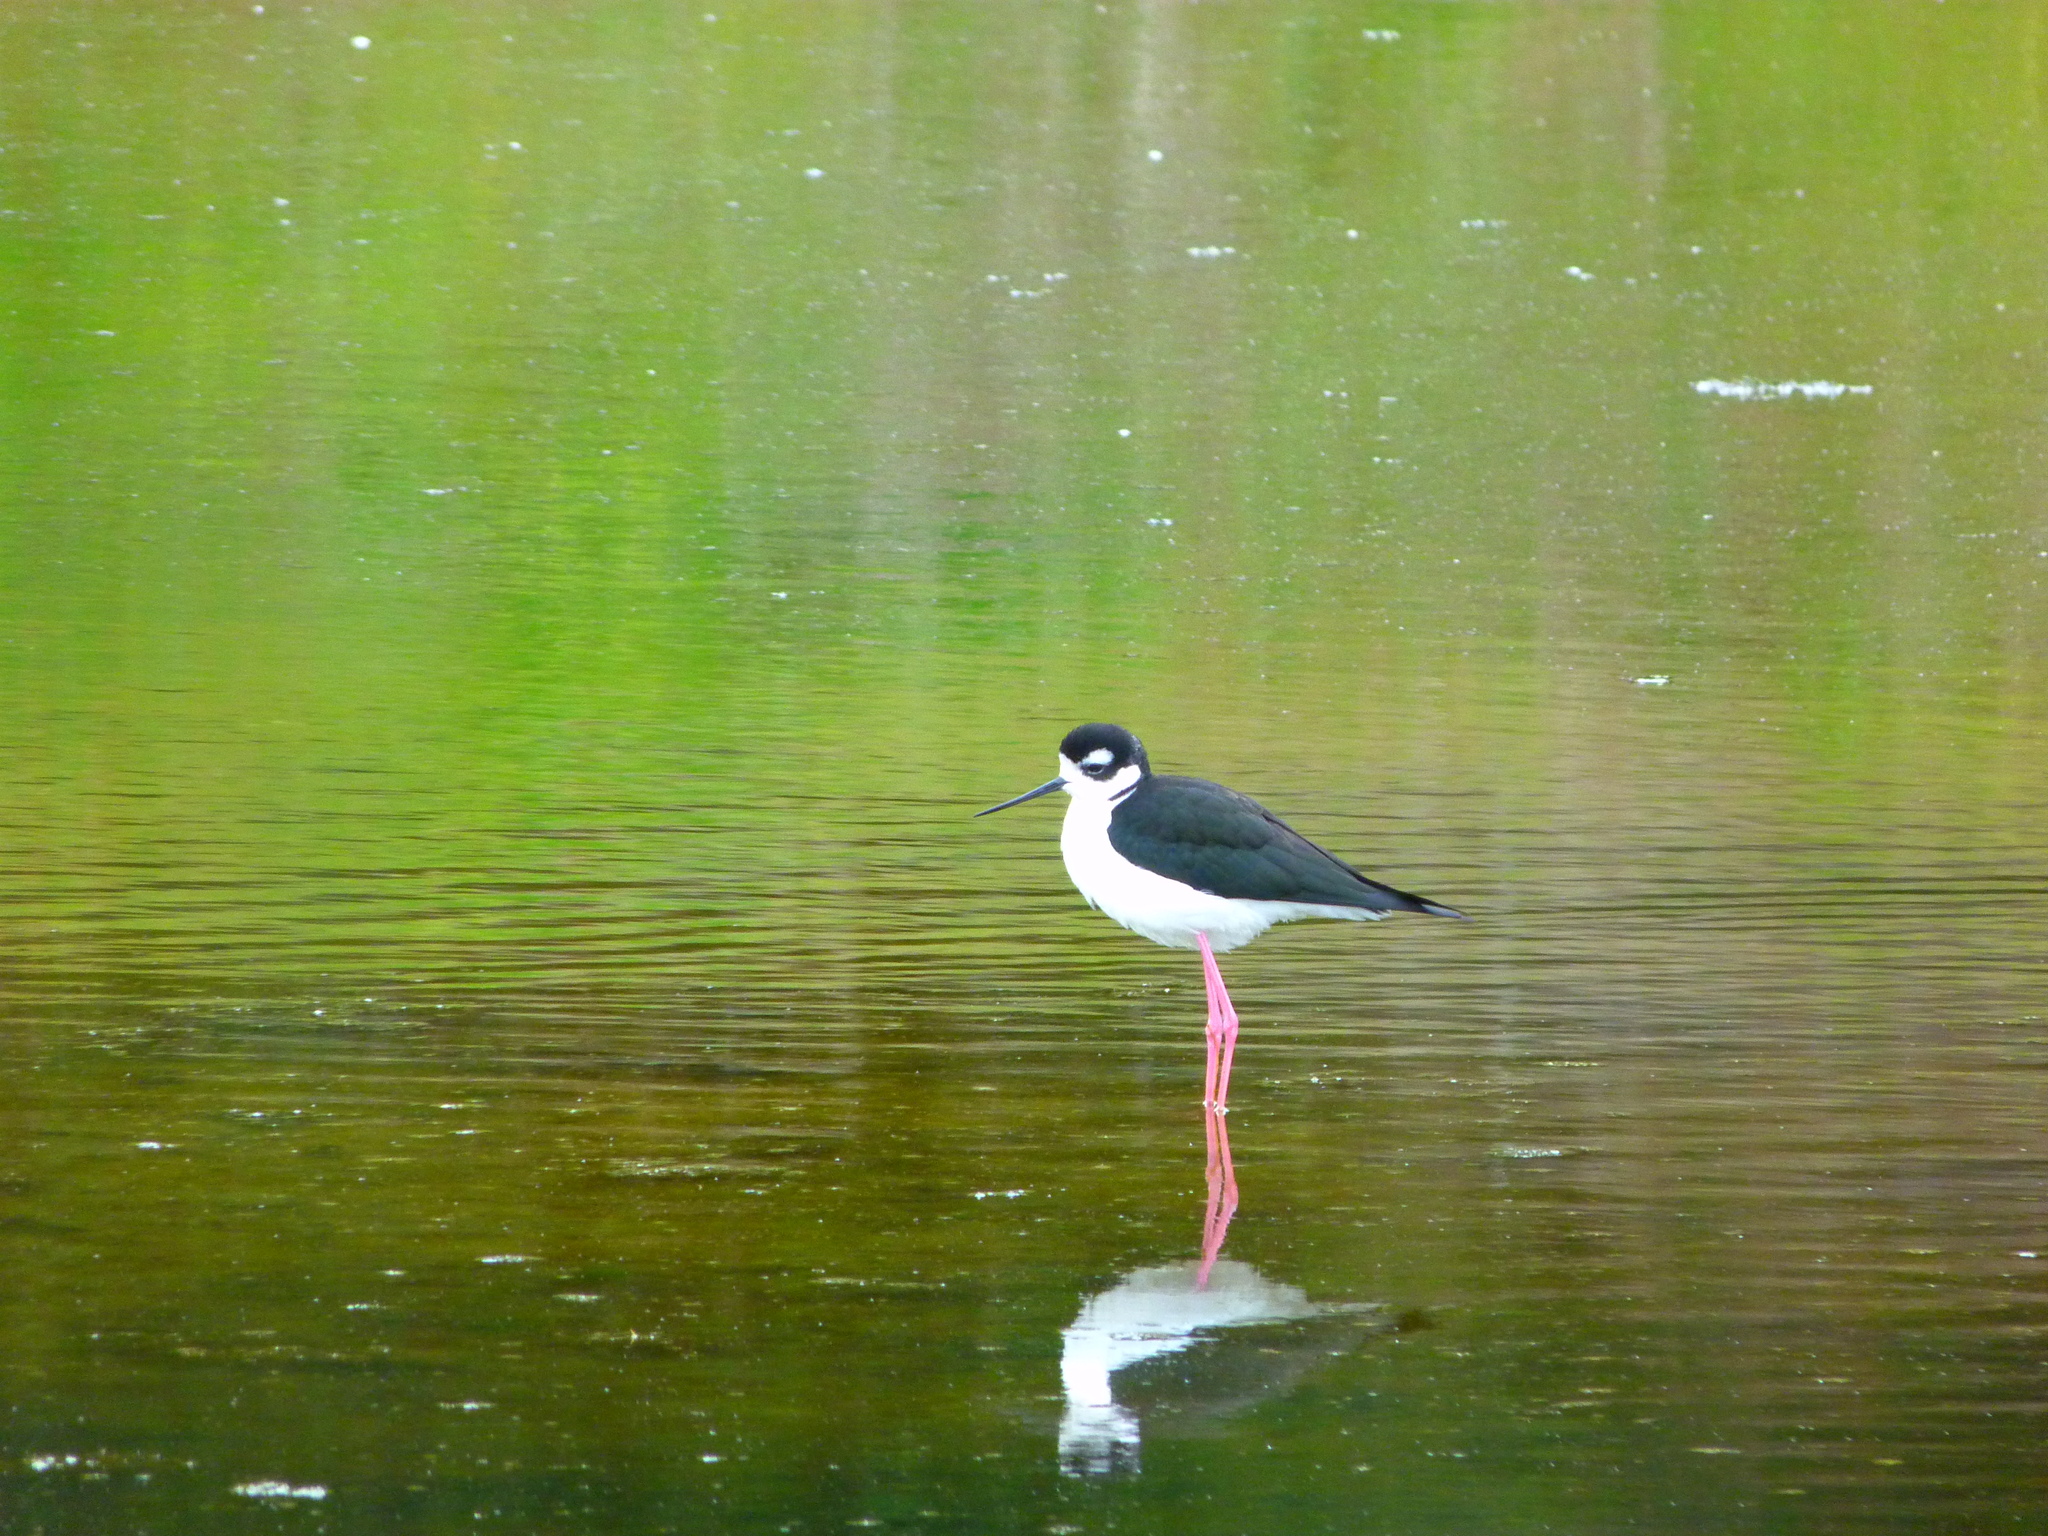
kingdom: Animalia
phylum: Chordata
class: Aves
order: Charadriiformes
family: Recurvirostridae
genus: Himantopus
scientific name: Himantopus mexicanus
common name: Black-necked stilt
